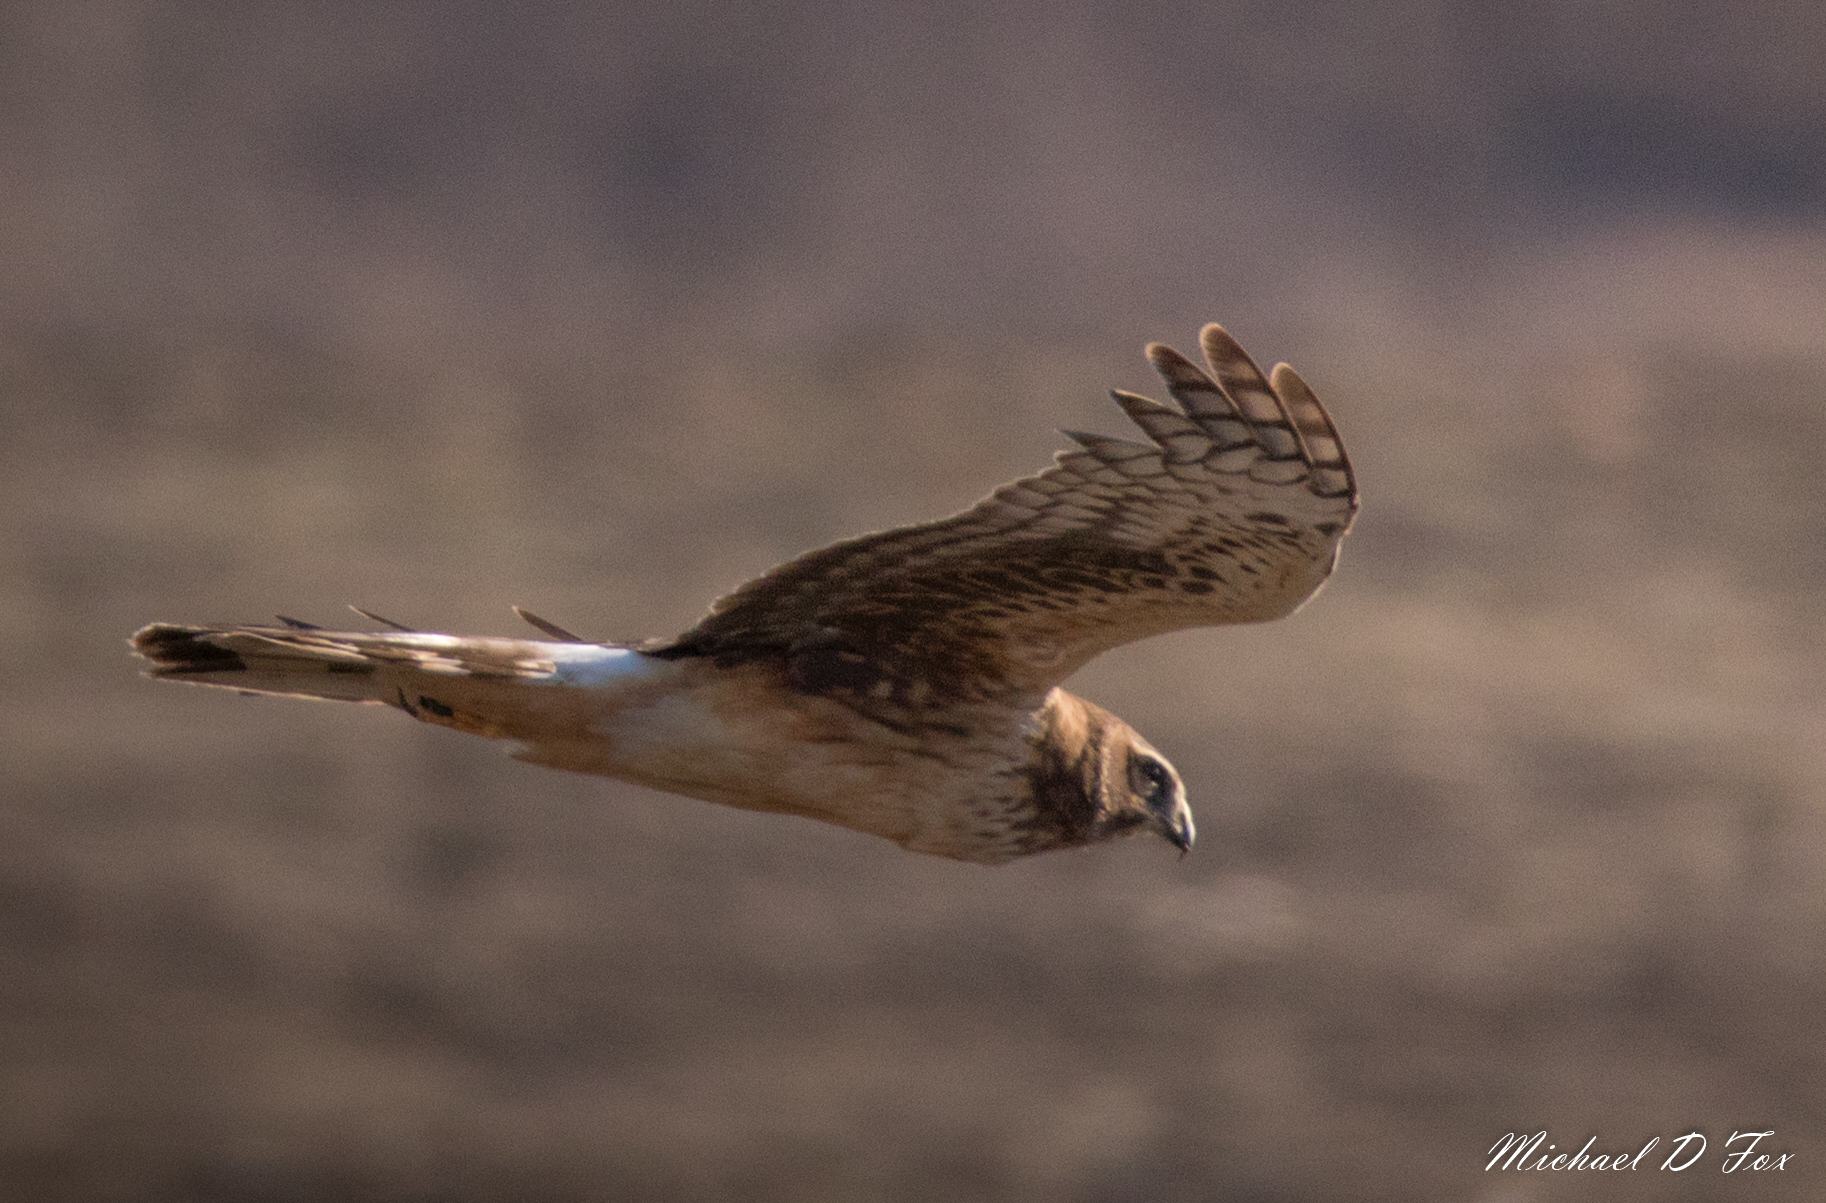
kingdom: Animalia
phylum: Chordata
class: Aves
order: Accipitriformes
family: Accipitridae
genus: Circus
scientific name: Circus cyaneus
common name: Hen harrier
